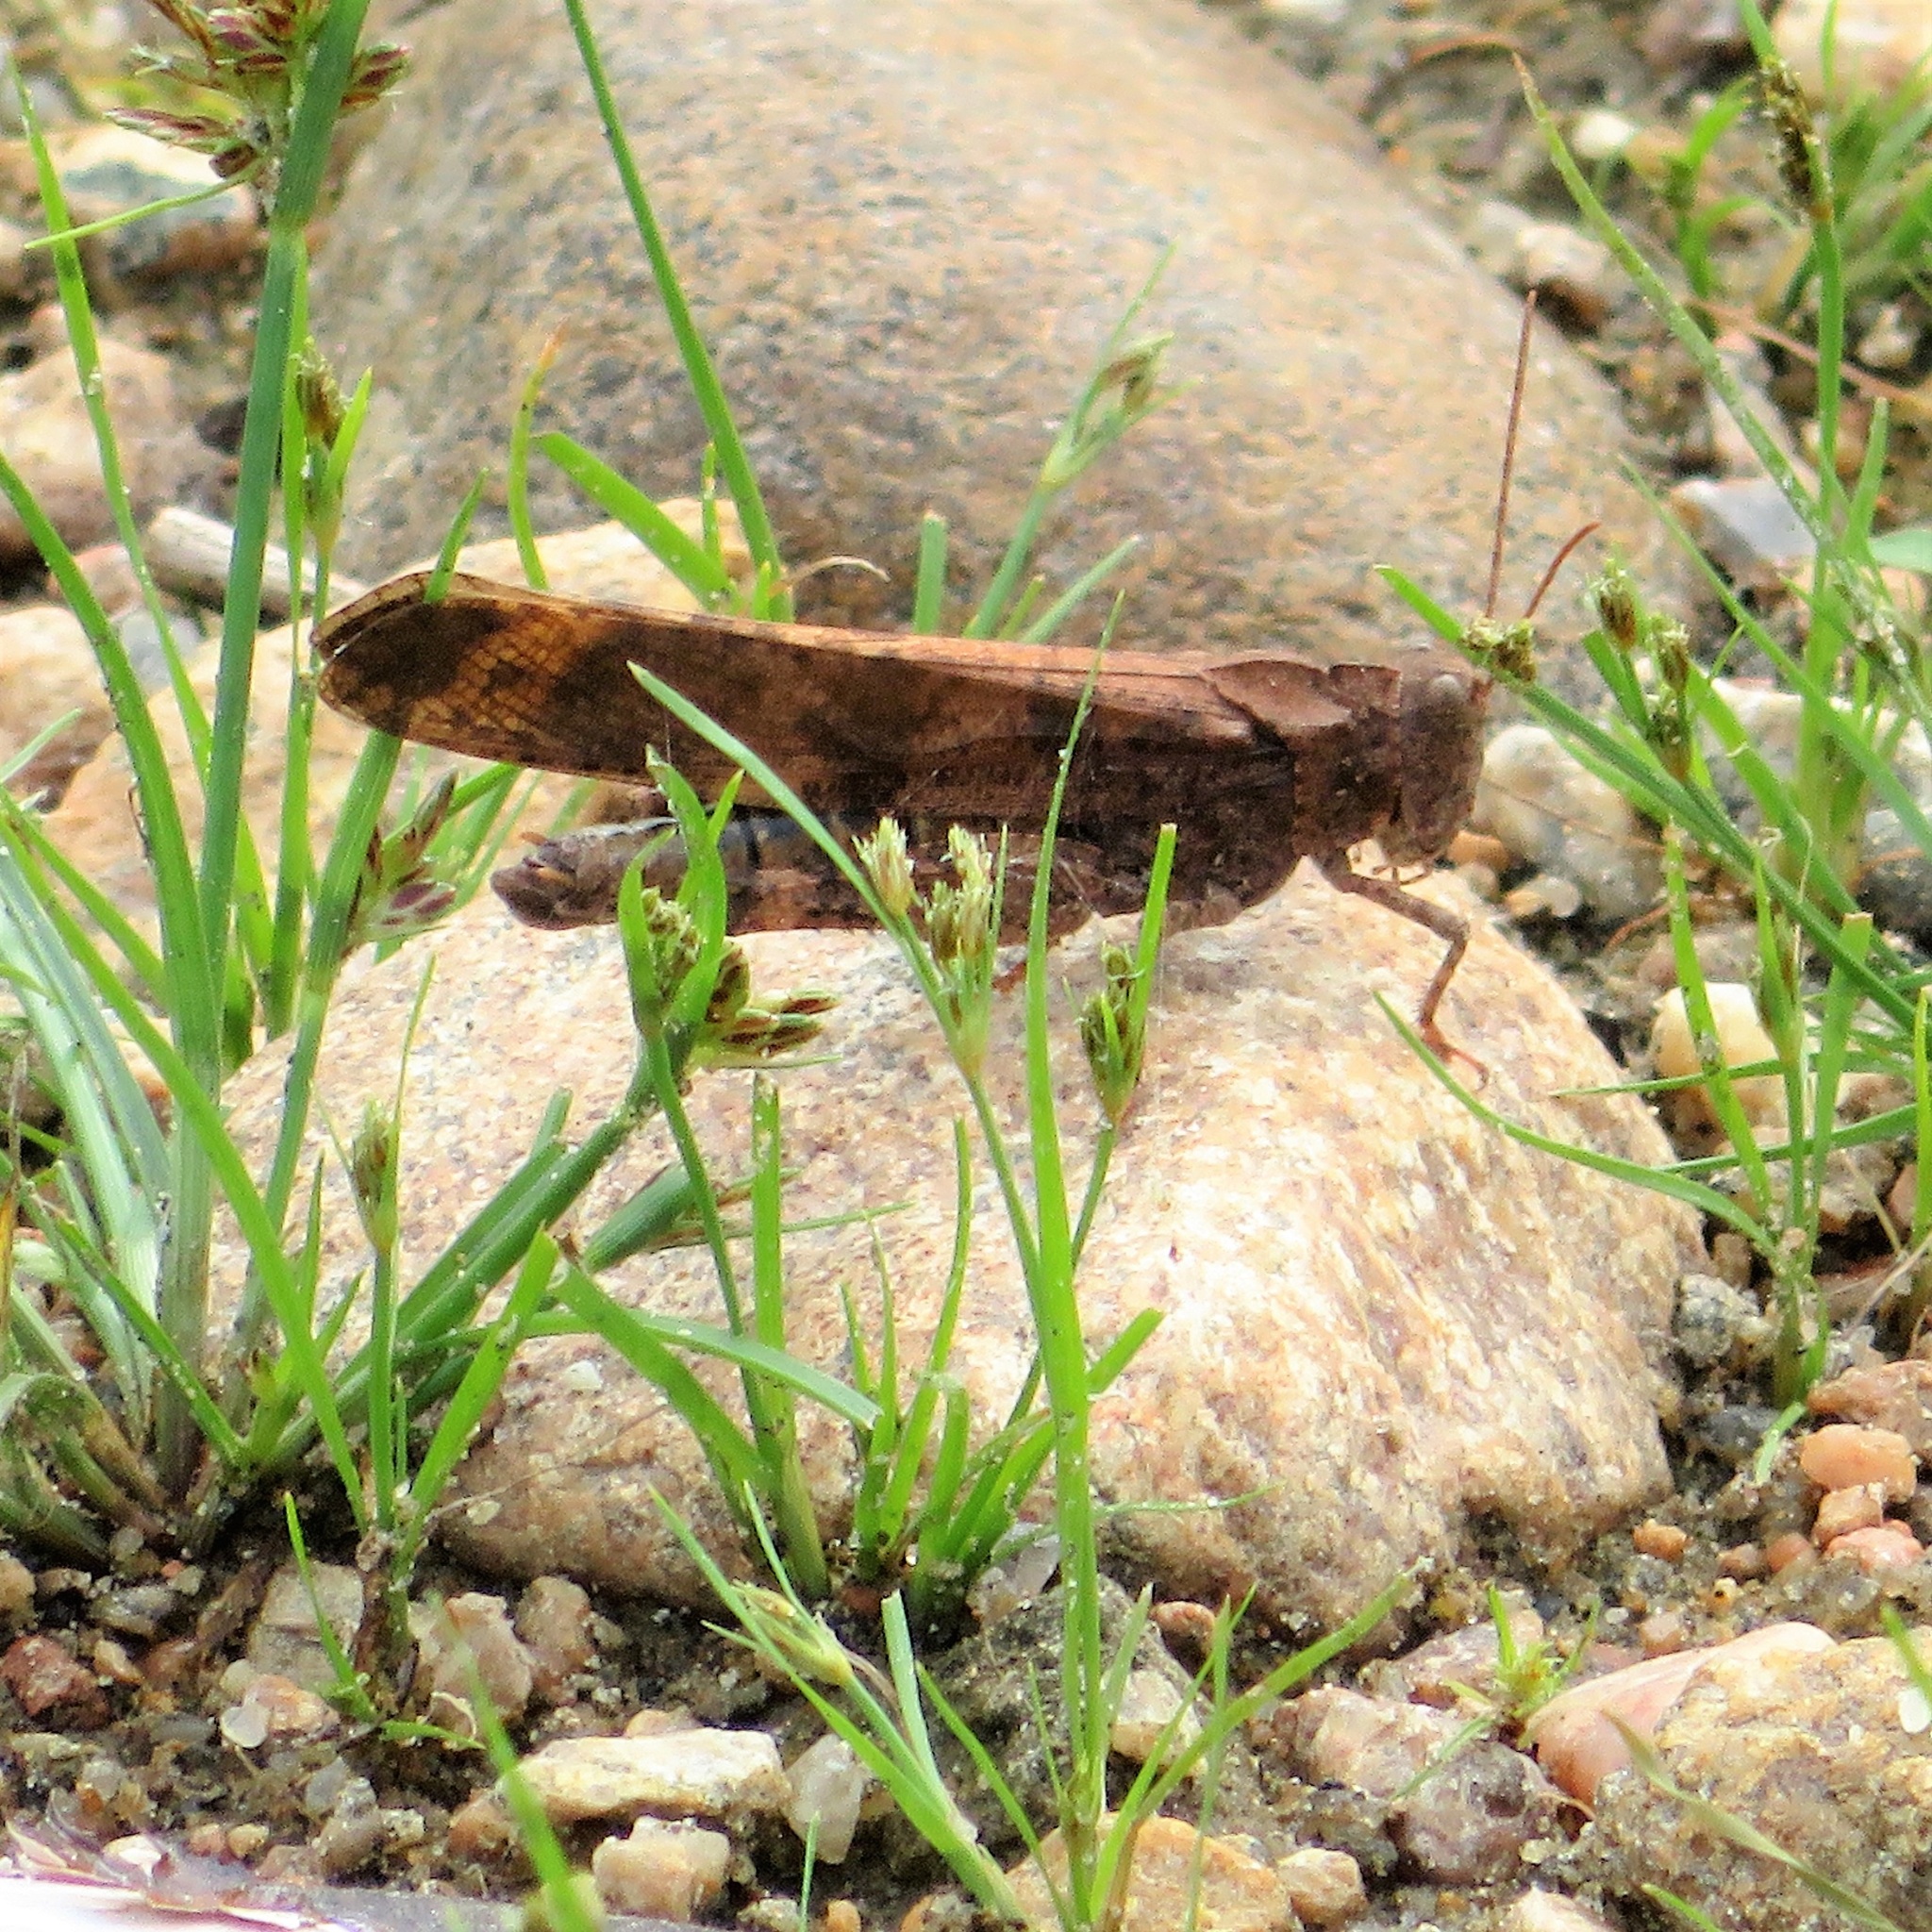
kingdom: Animalia
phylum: Arthropoda
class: Insecta
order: Orthoptera
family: Acrididae
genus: Dissosteira
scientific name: Dissosteira carolina
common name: Carolina grasshopper
